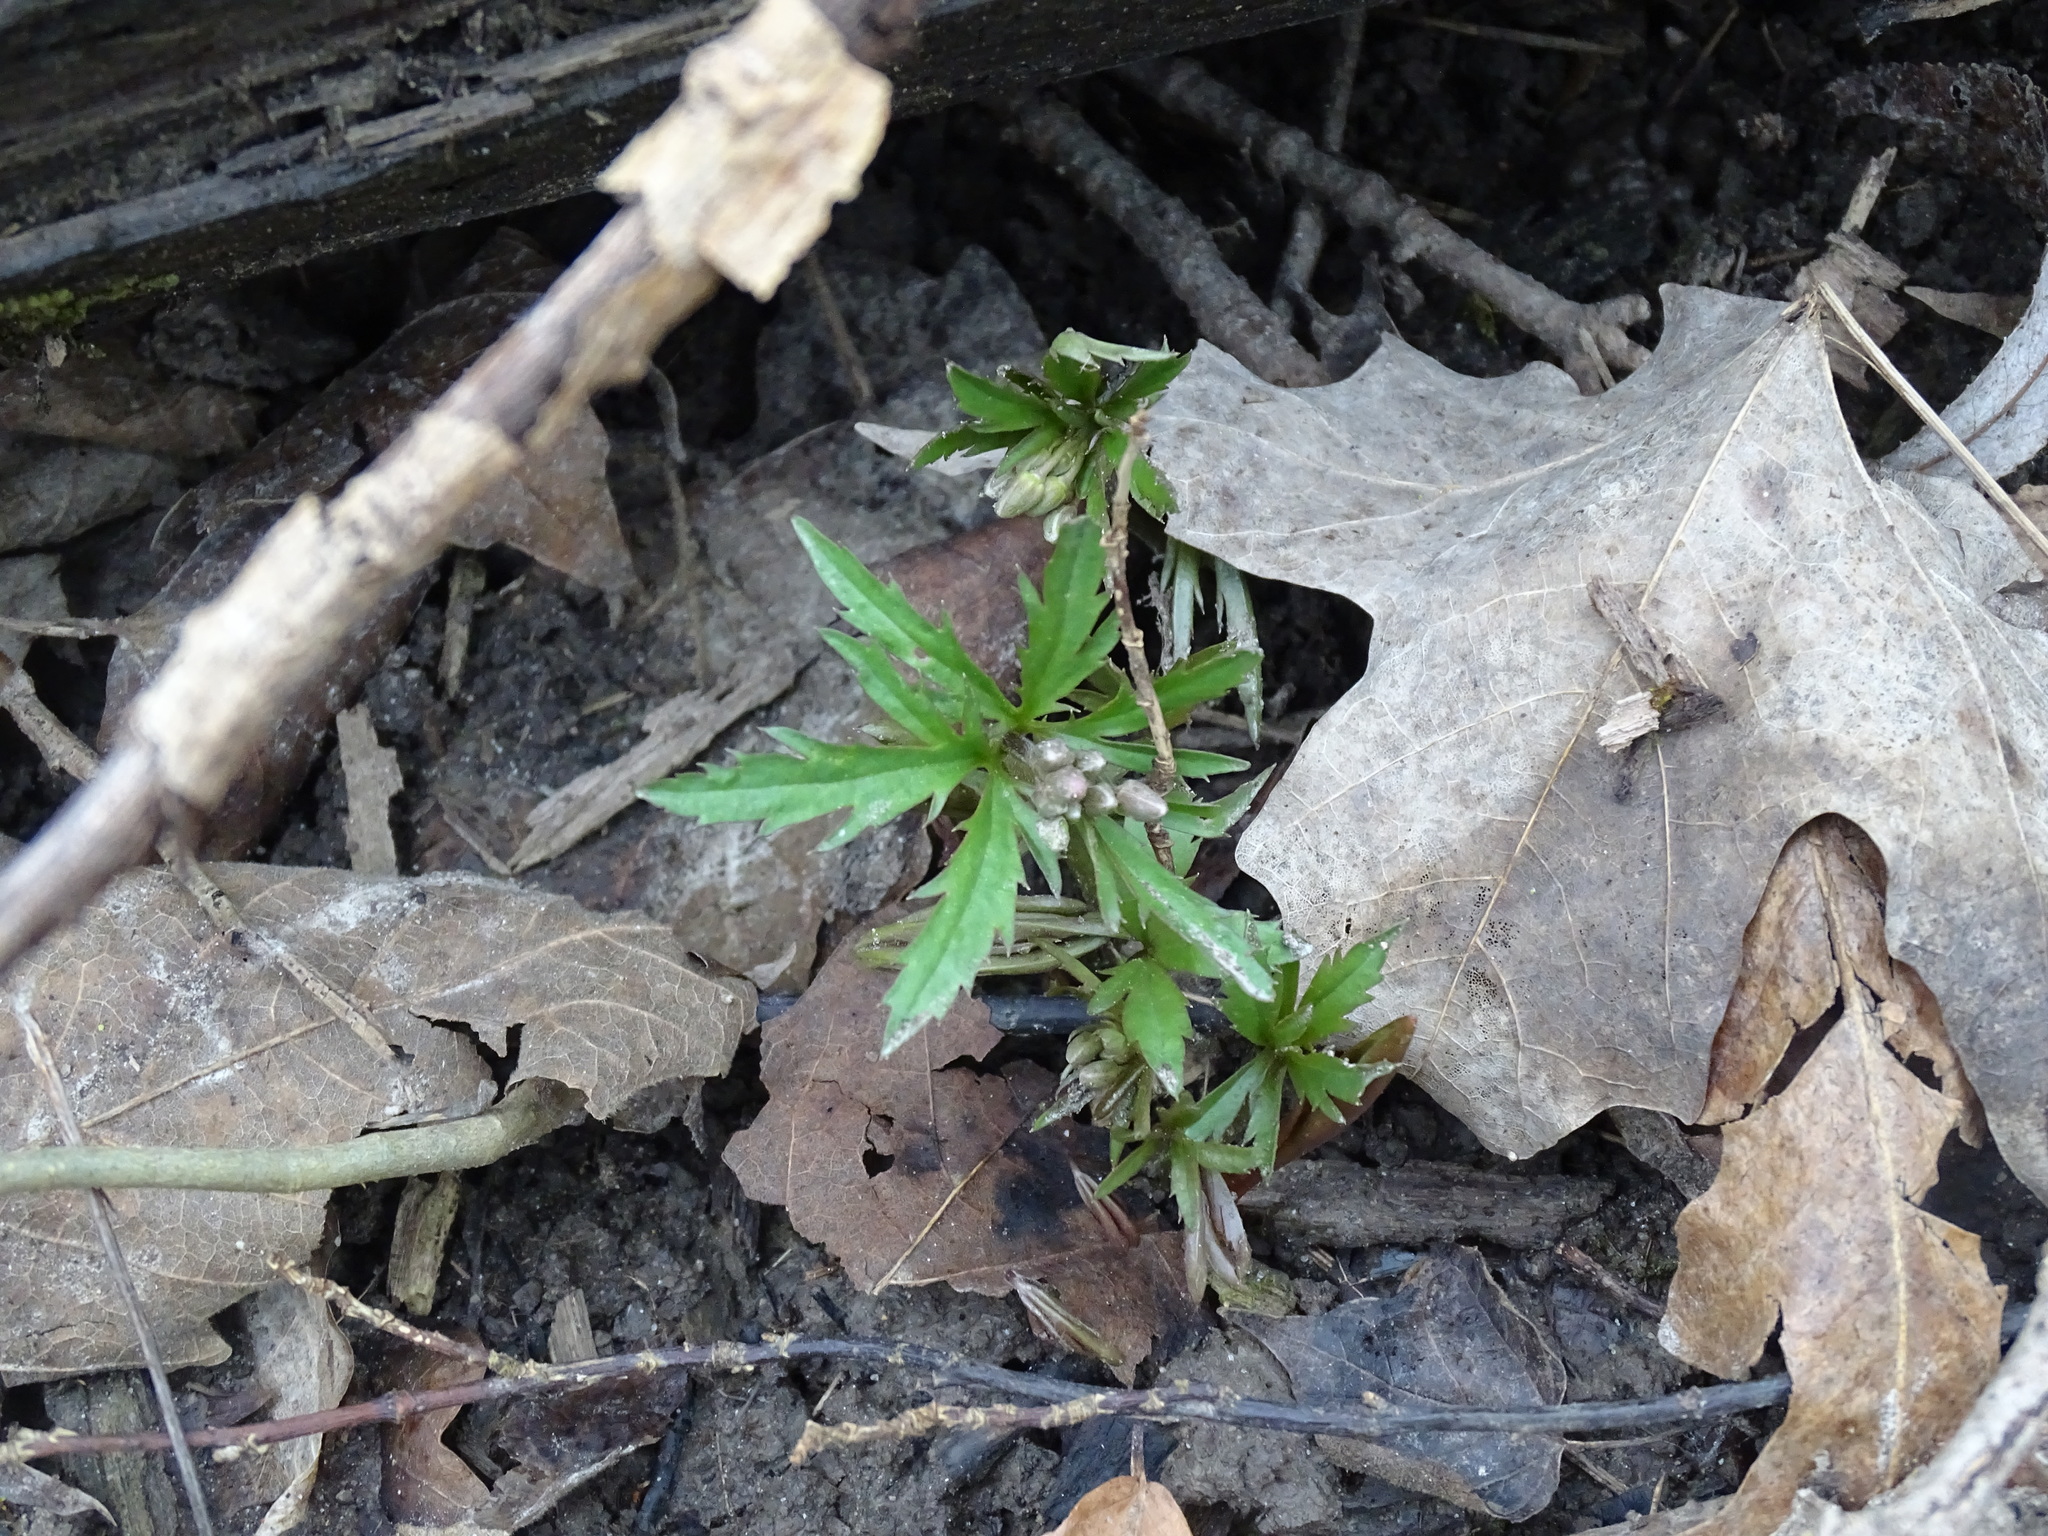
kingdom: Plantae
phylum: Tracheophyta
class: Magnoliopsida
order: Brassicales
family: Brassicaceae
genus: Cardamine
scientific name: Cardamine concatenata
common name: Cut-leaf toothcup
